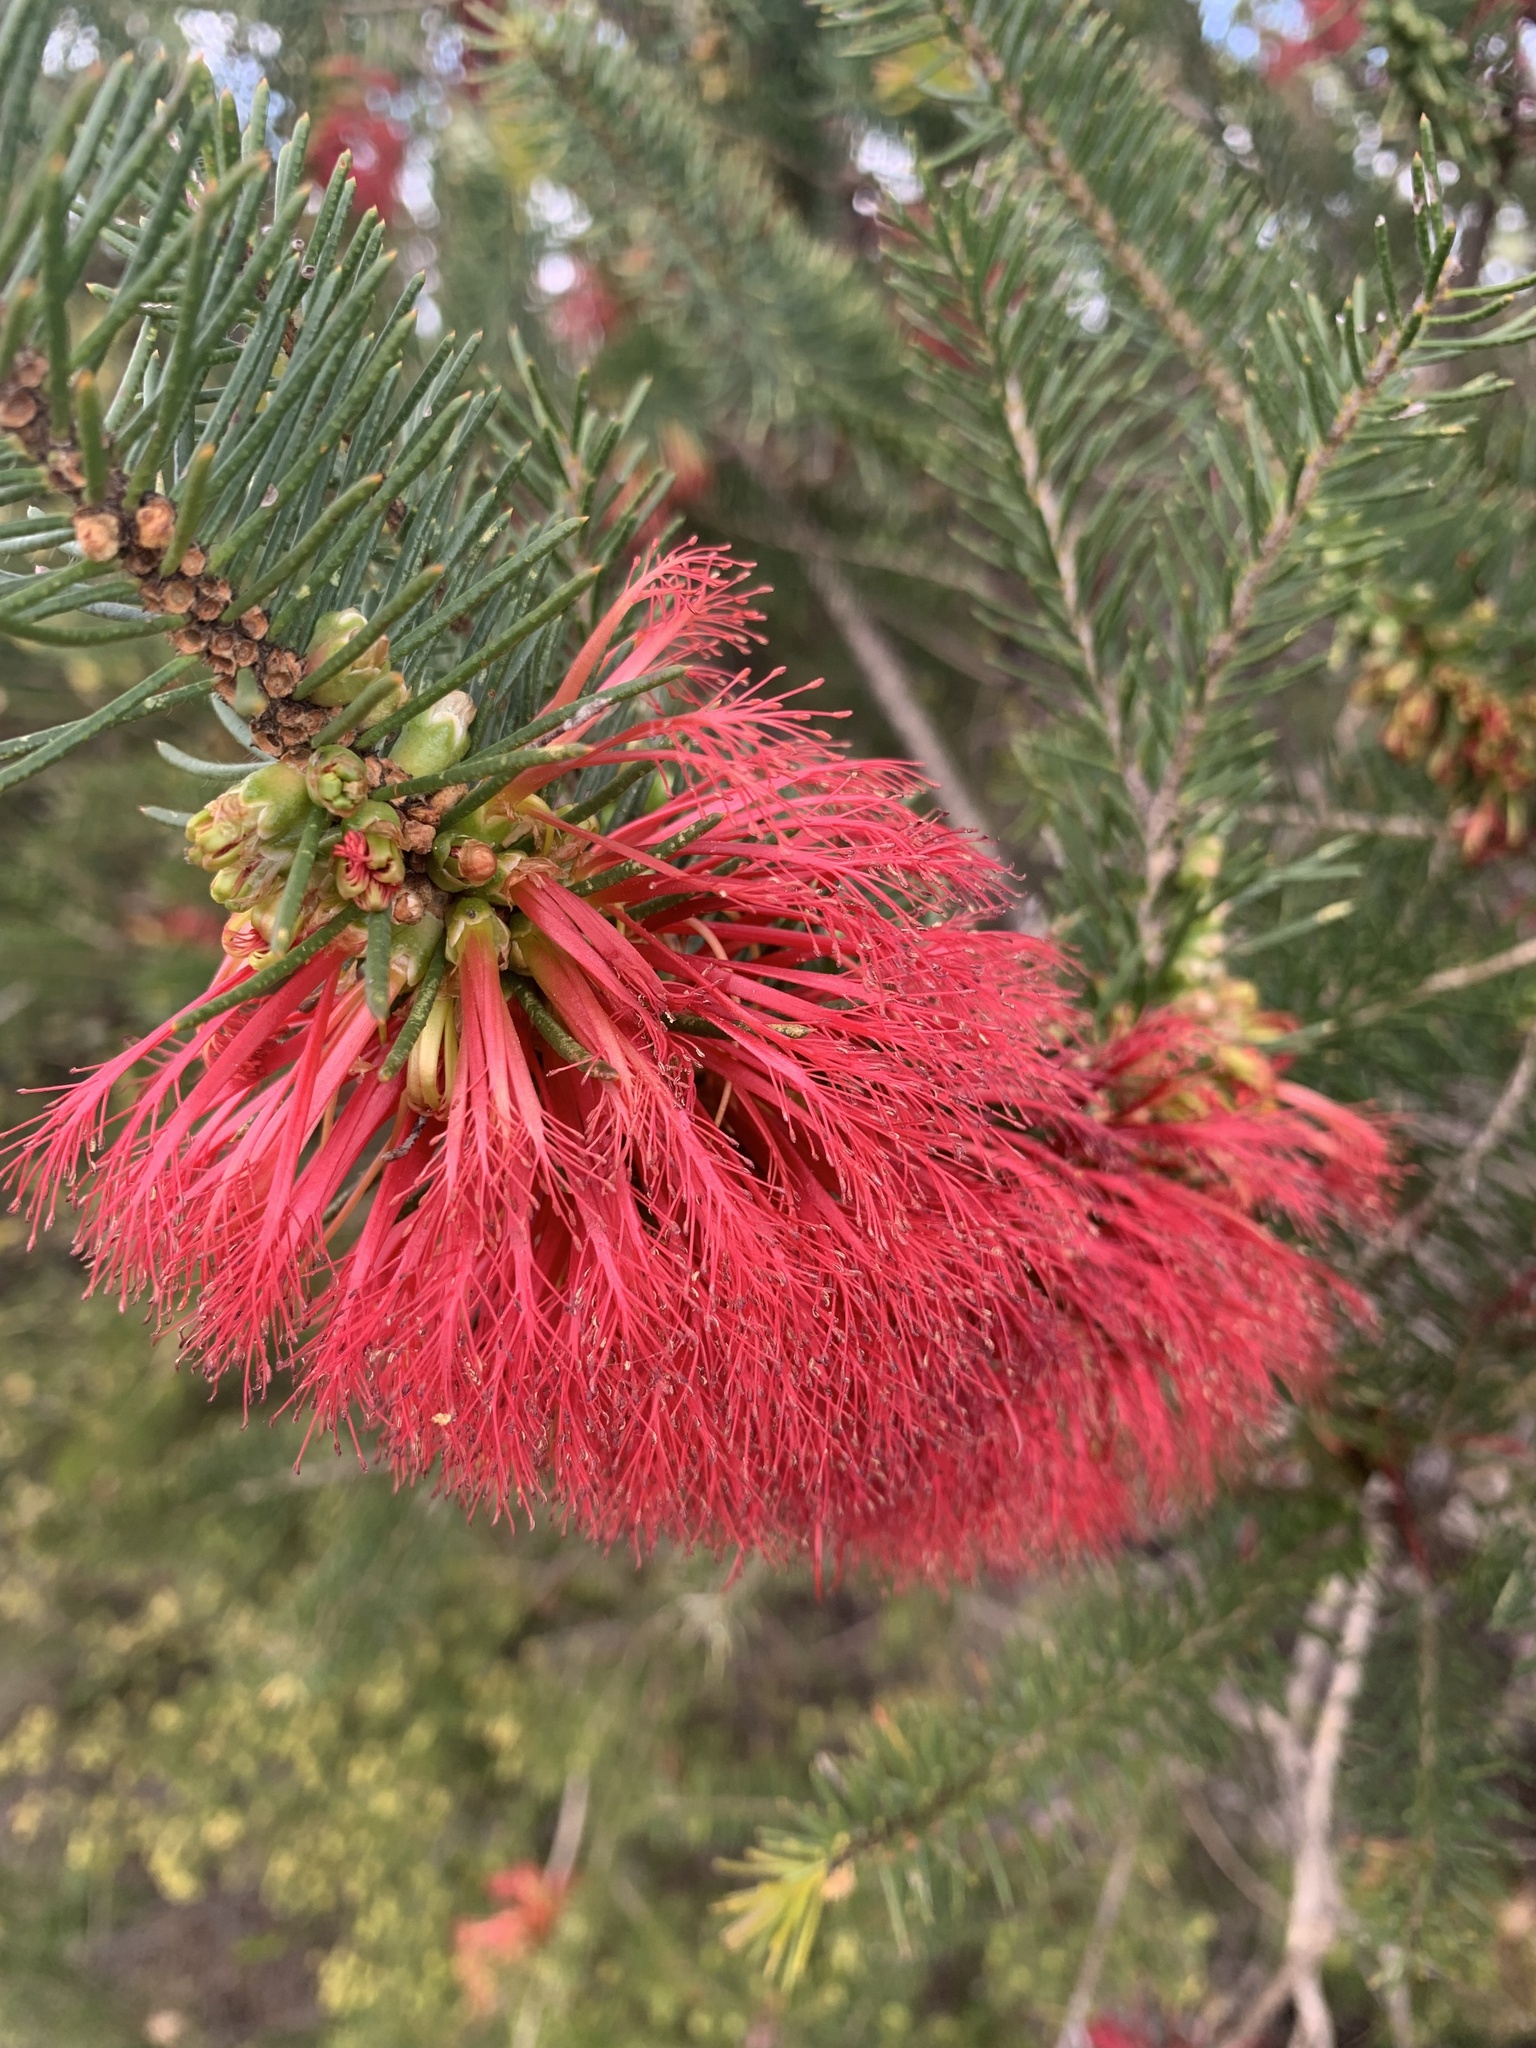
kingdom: Plantae
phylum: Tracheophyta
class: Magnoliopsida
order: Myrtales
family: Myrtaceae
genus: Melaleuca
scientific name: Melaleuca quadrifida
